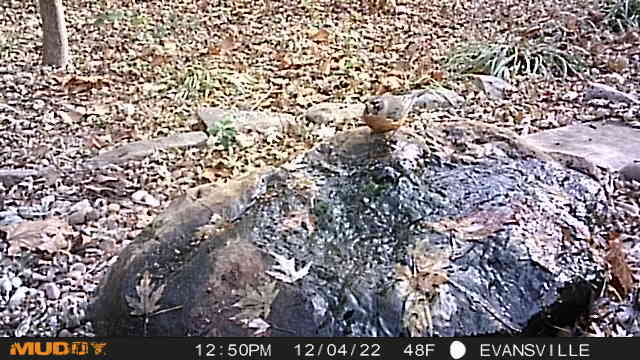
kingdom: Animalia
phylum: Chordata
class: Aves
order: Passeriformes
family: Turdidae
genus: Turdus
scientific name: Turdus migratorius
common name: American robin
